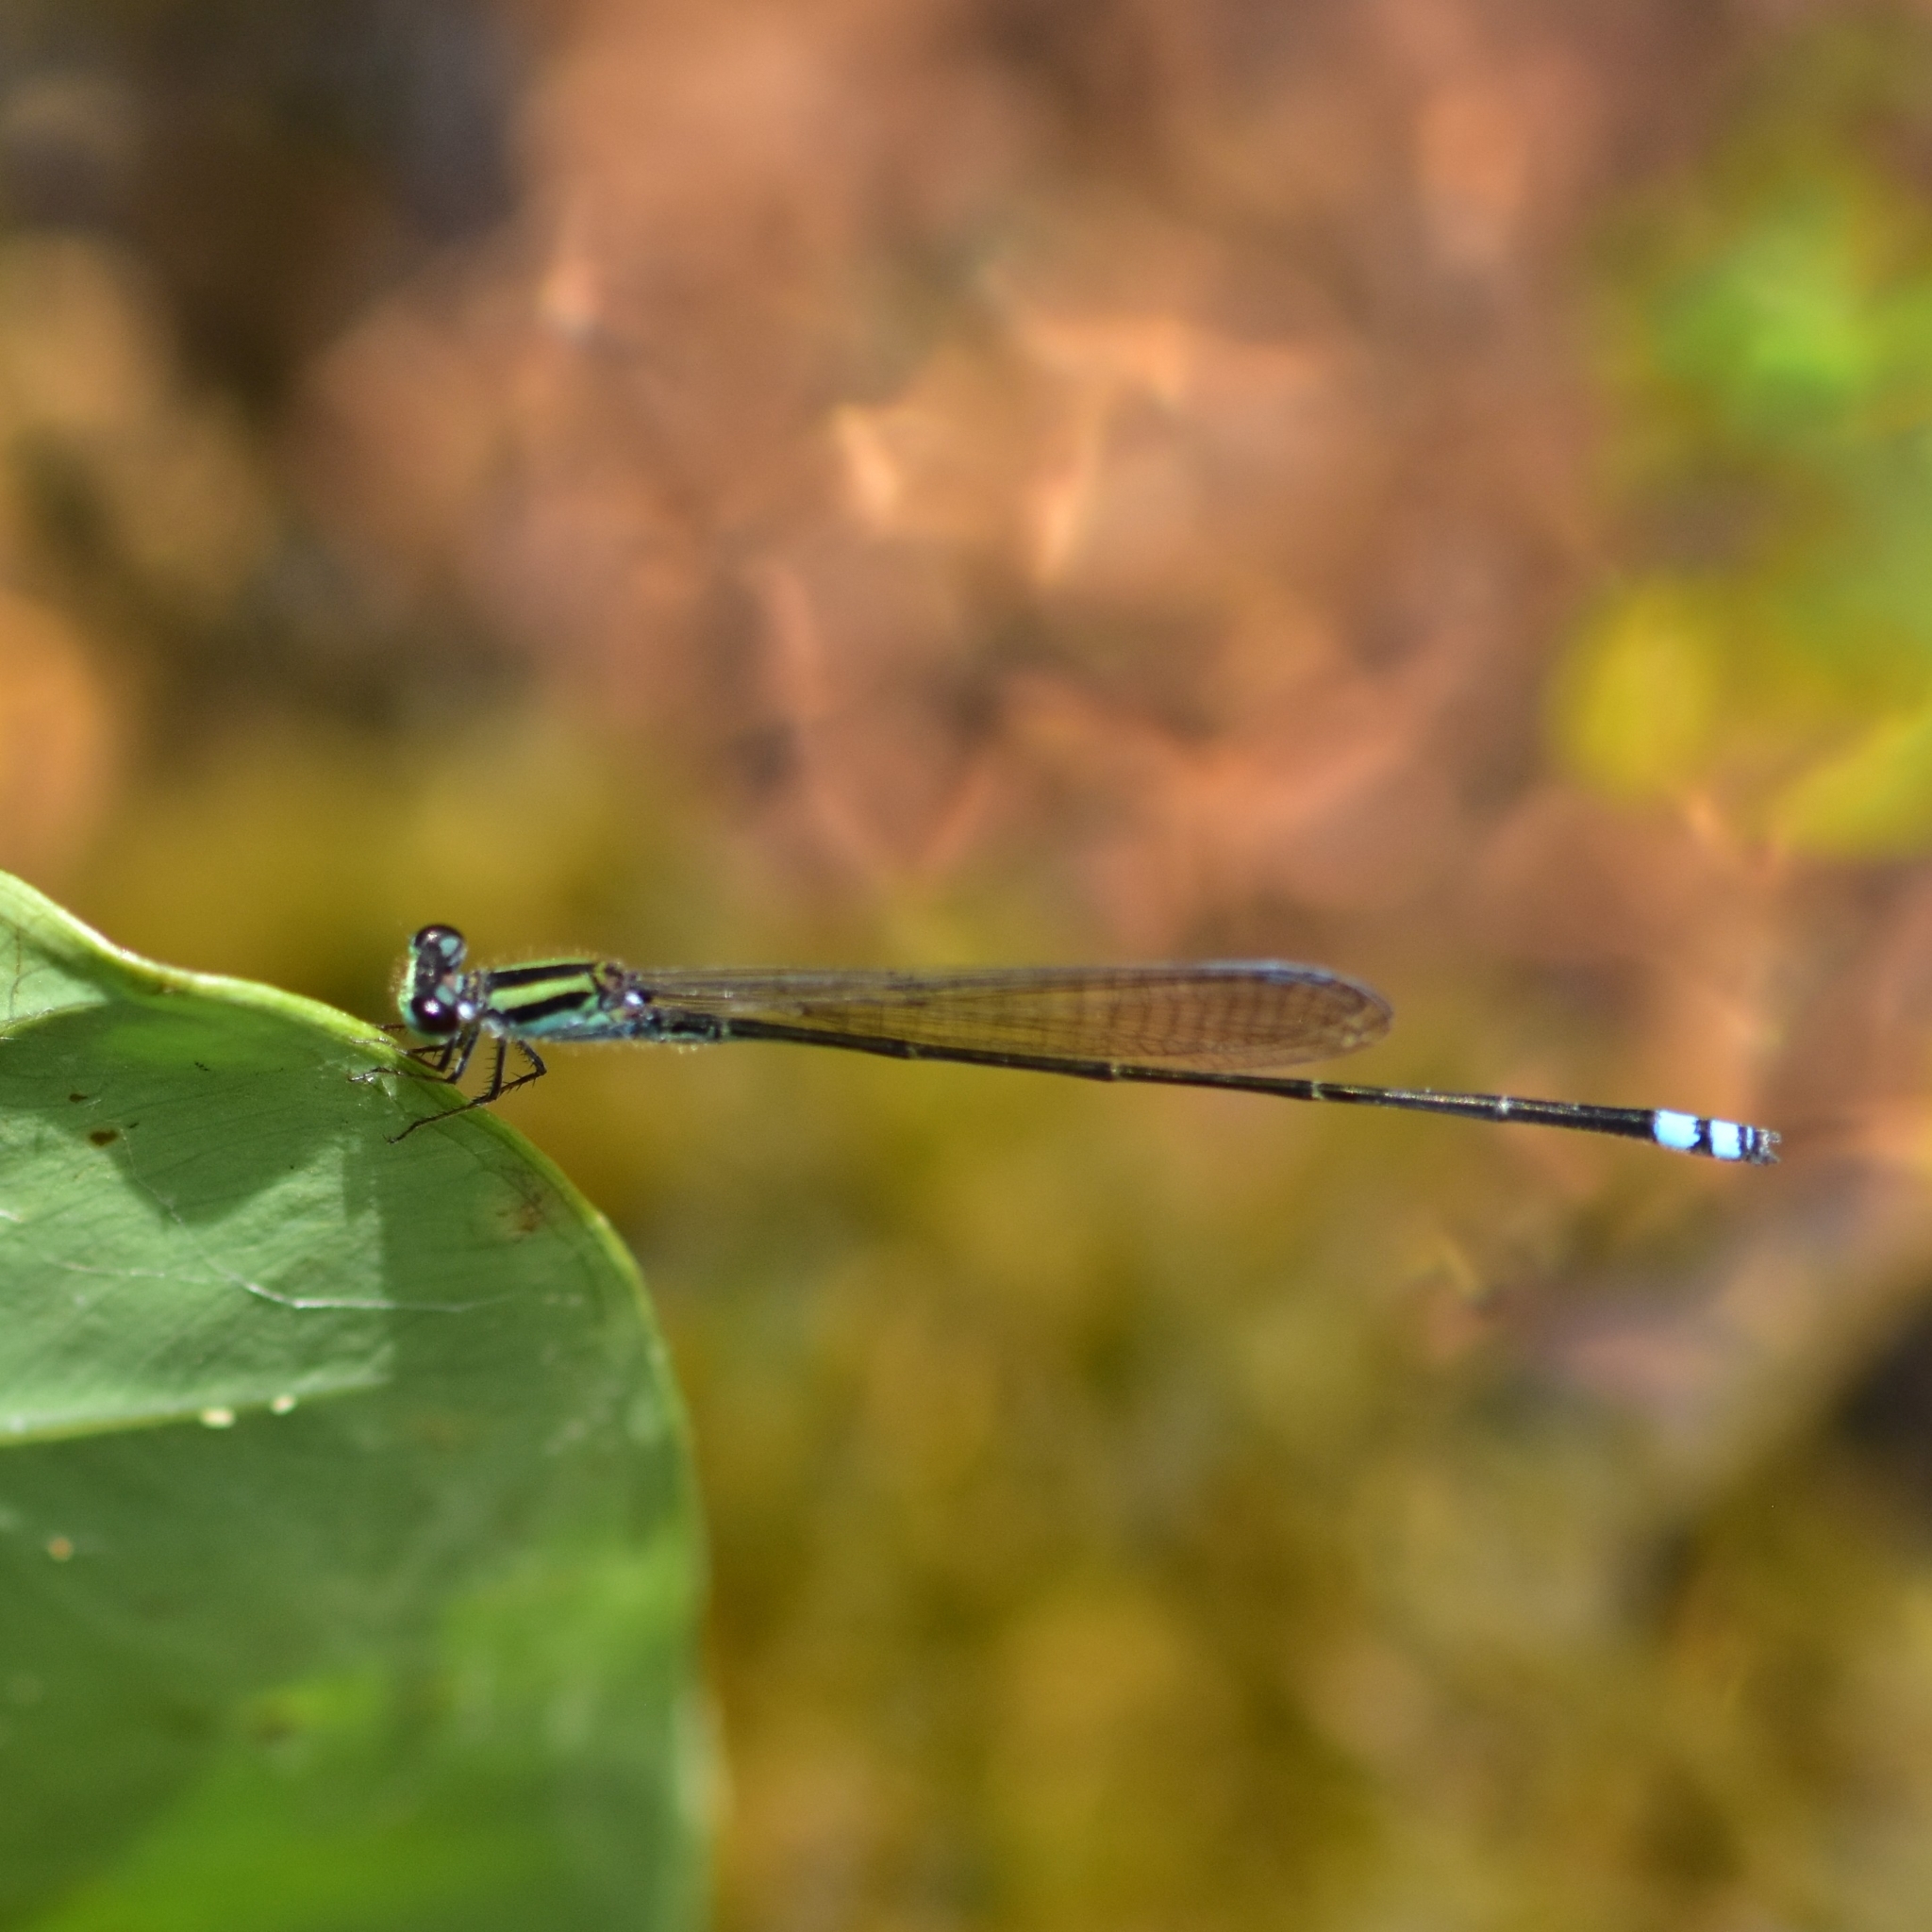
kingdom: Animalia
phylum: Arthropoda
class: Insecta
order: Odonata
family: Coenagrionidae
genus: Pseudagrion
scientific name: Pseudagrion indicum
